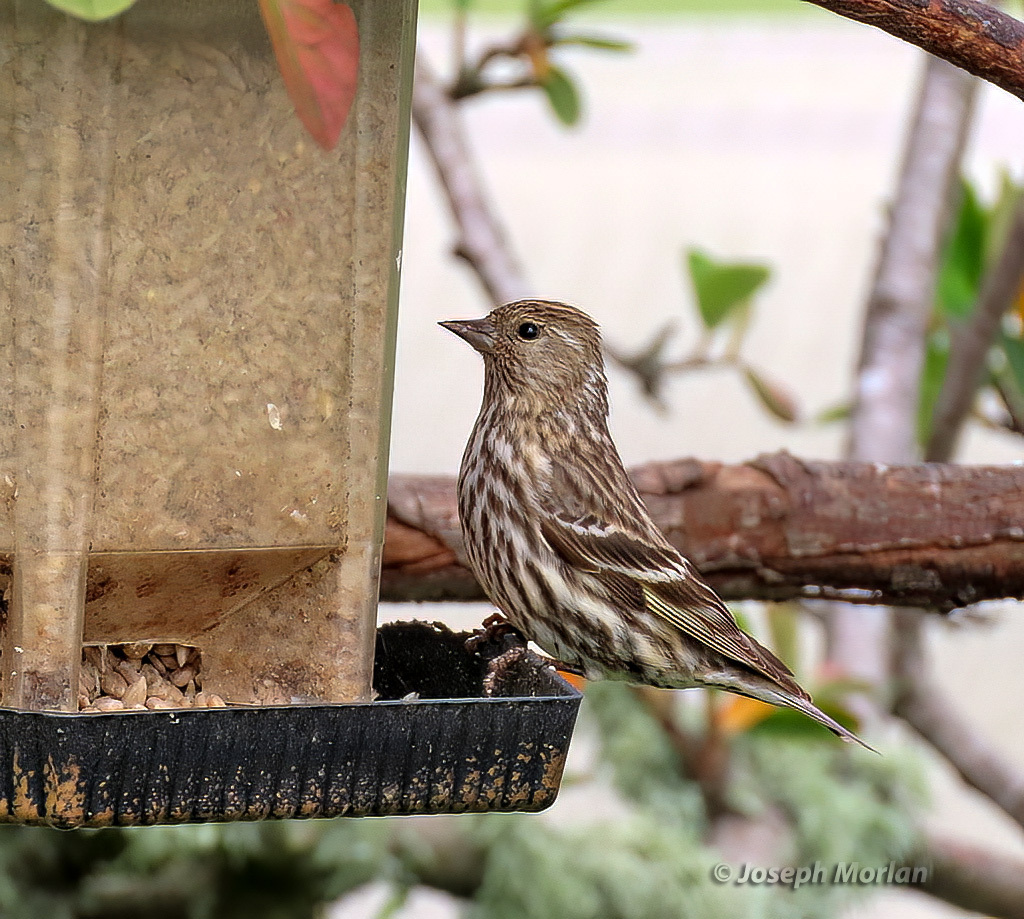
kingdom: Animalia
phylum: Chordata
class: Aves
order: Passeriformes
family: Fringillidae
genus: Spinus
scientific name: Spinus pinus
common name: Pine siskin
